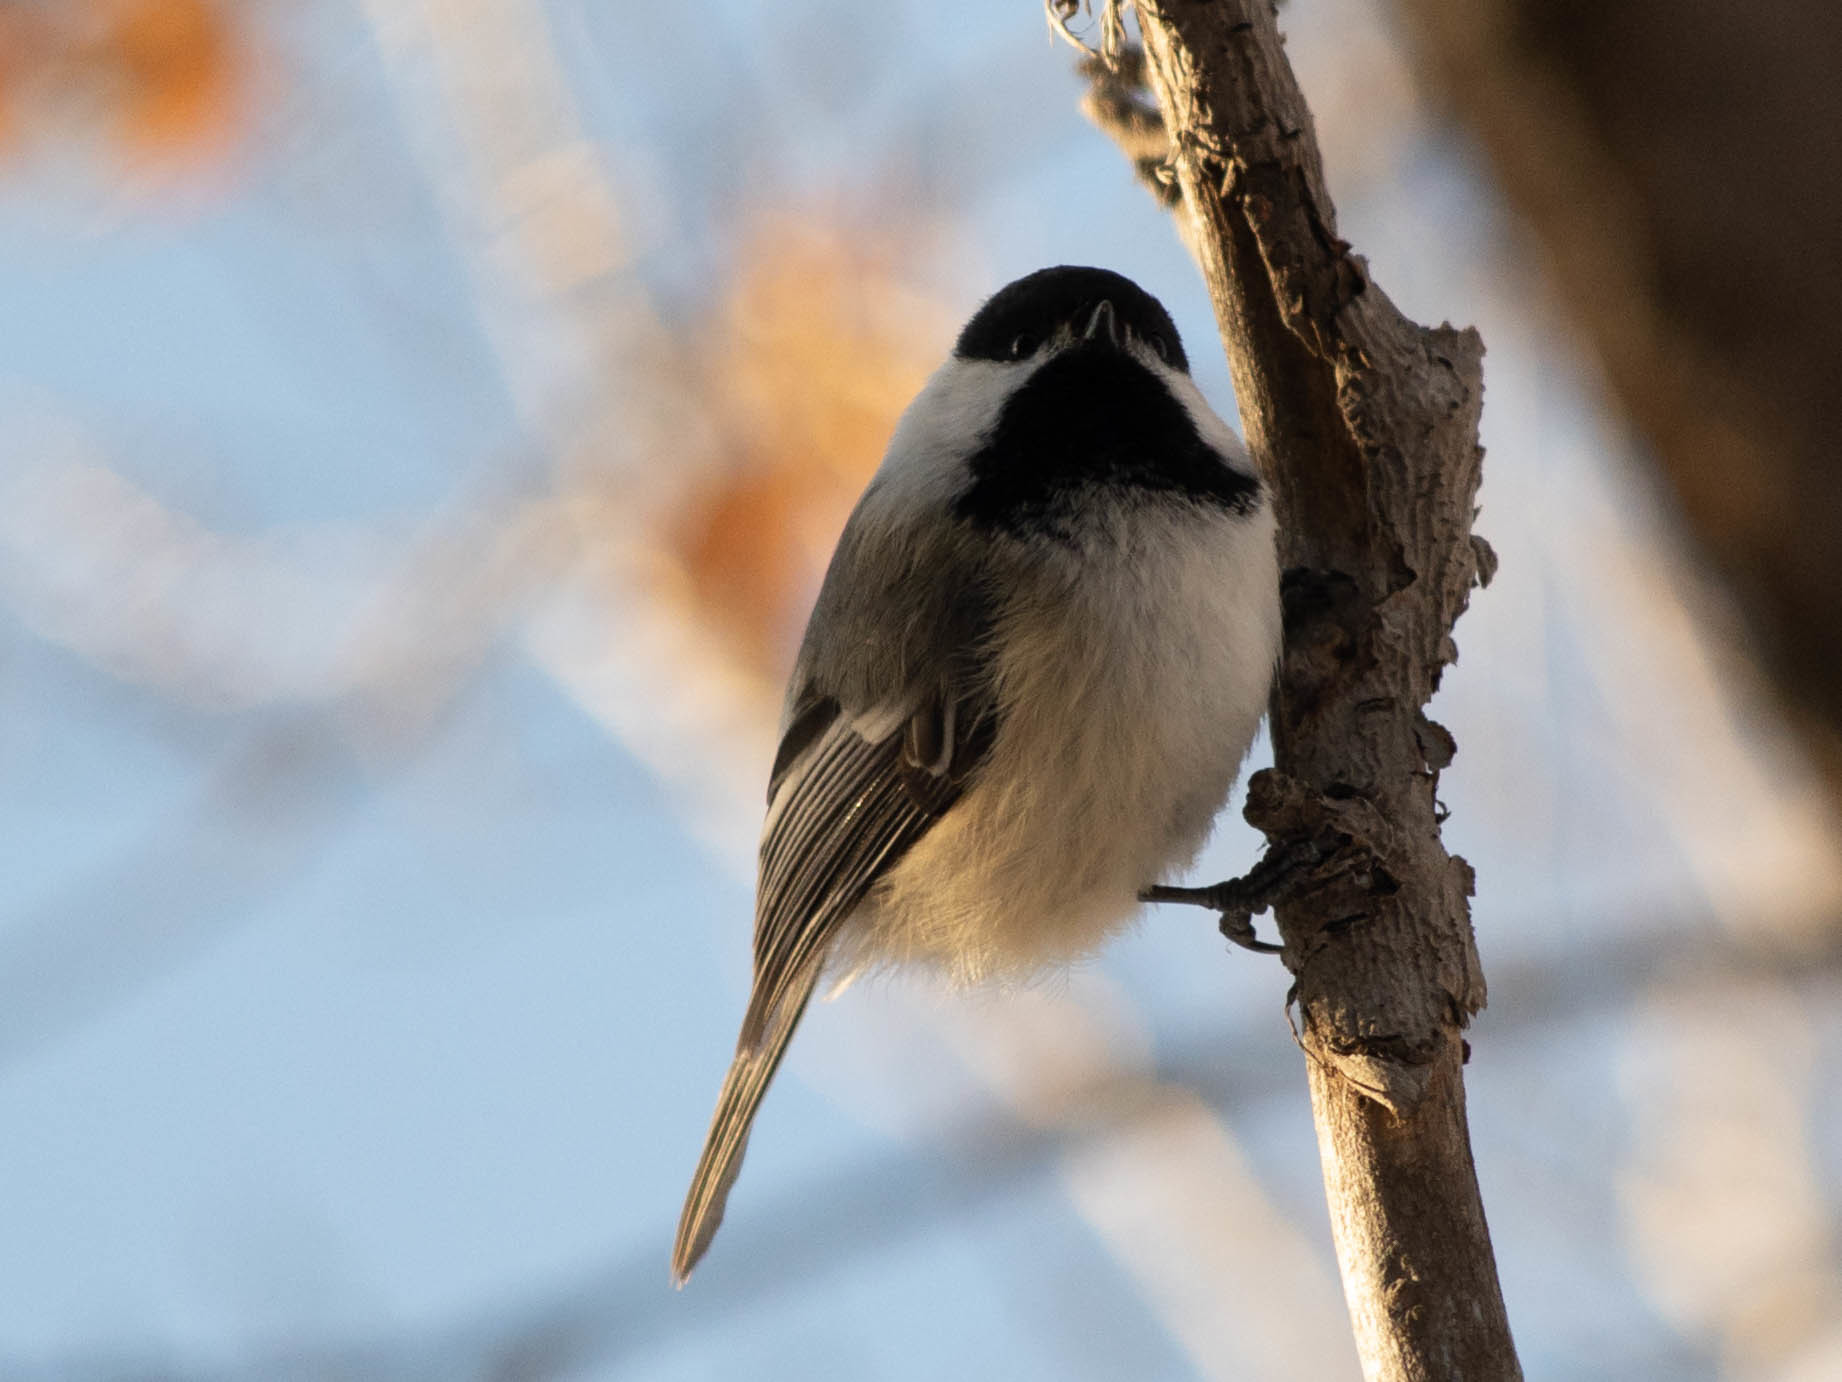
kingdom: Animalia
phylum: Chordata
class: Aves
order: Passeriformes
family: Paridae
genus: Poecile
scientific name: Poecile atricapillus
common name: Black-capped chickadee
